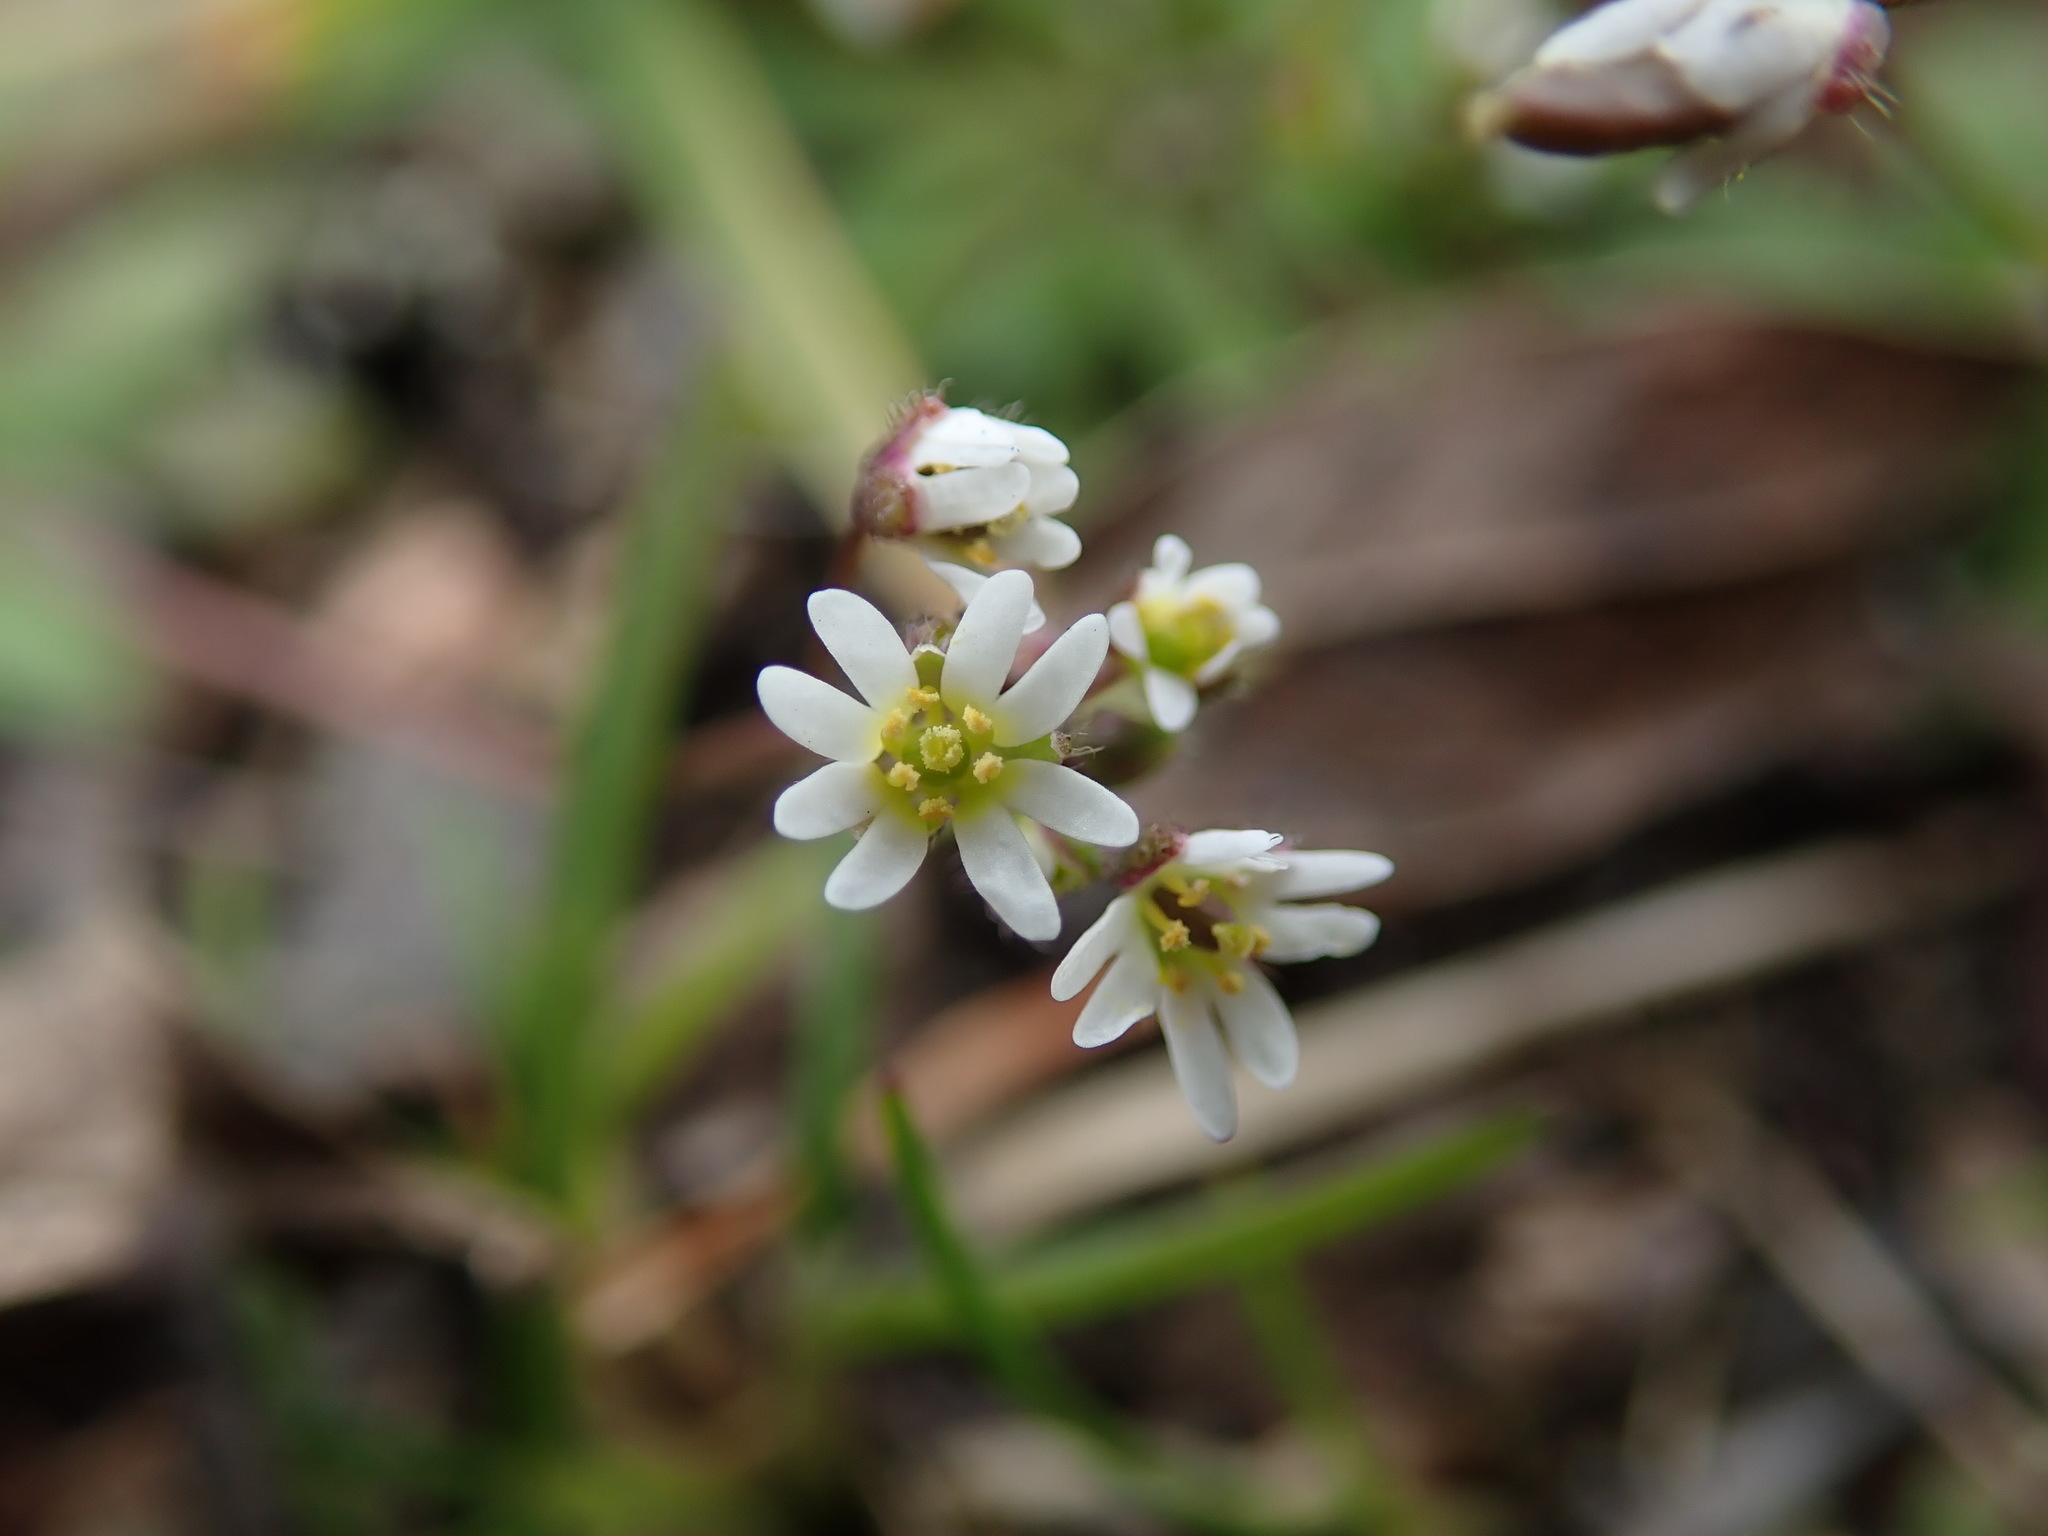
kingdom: Plantae
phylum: Tracheophyta
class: Magnoliopsida
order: Brassicales
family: Brassicaceae
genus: Draba
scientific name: Draba verna
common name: Spring draba
